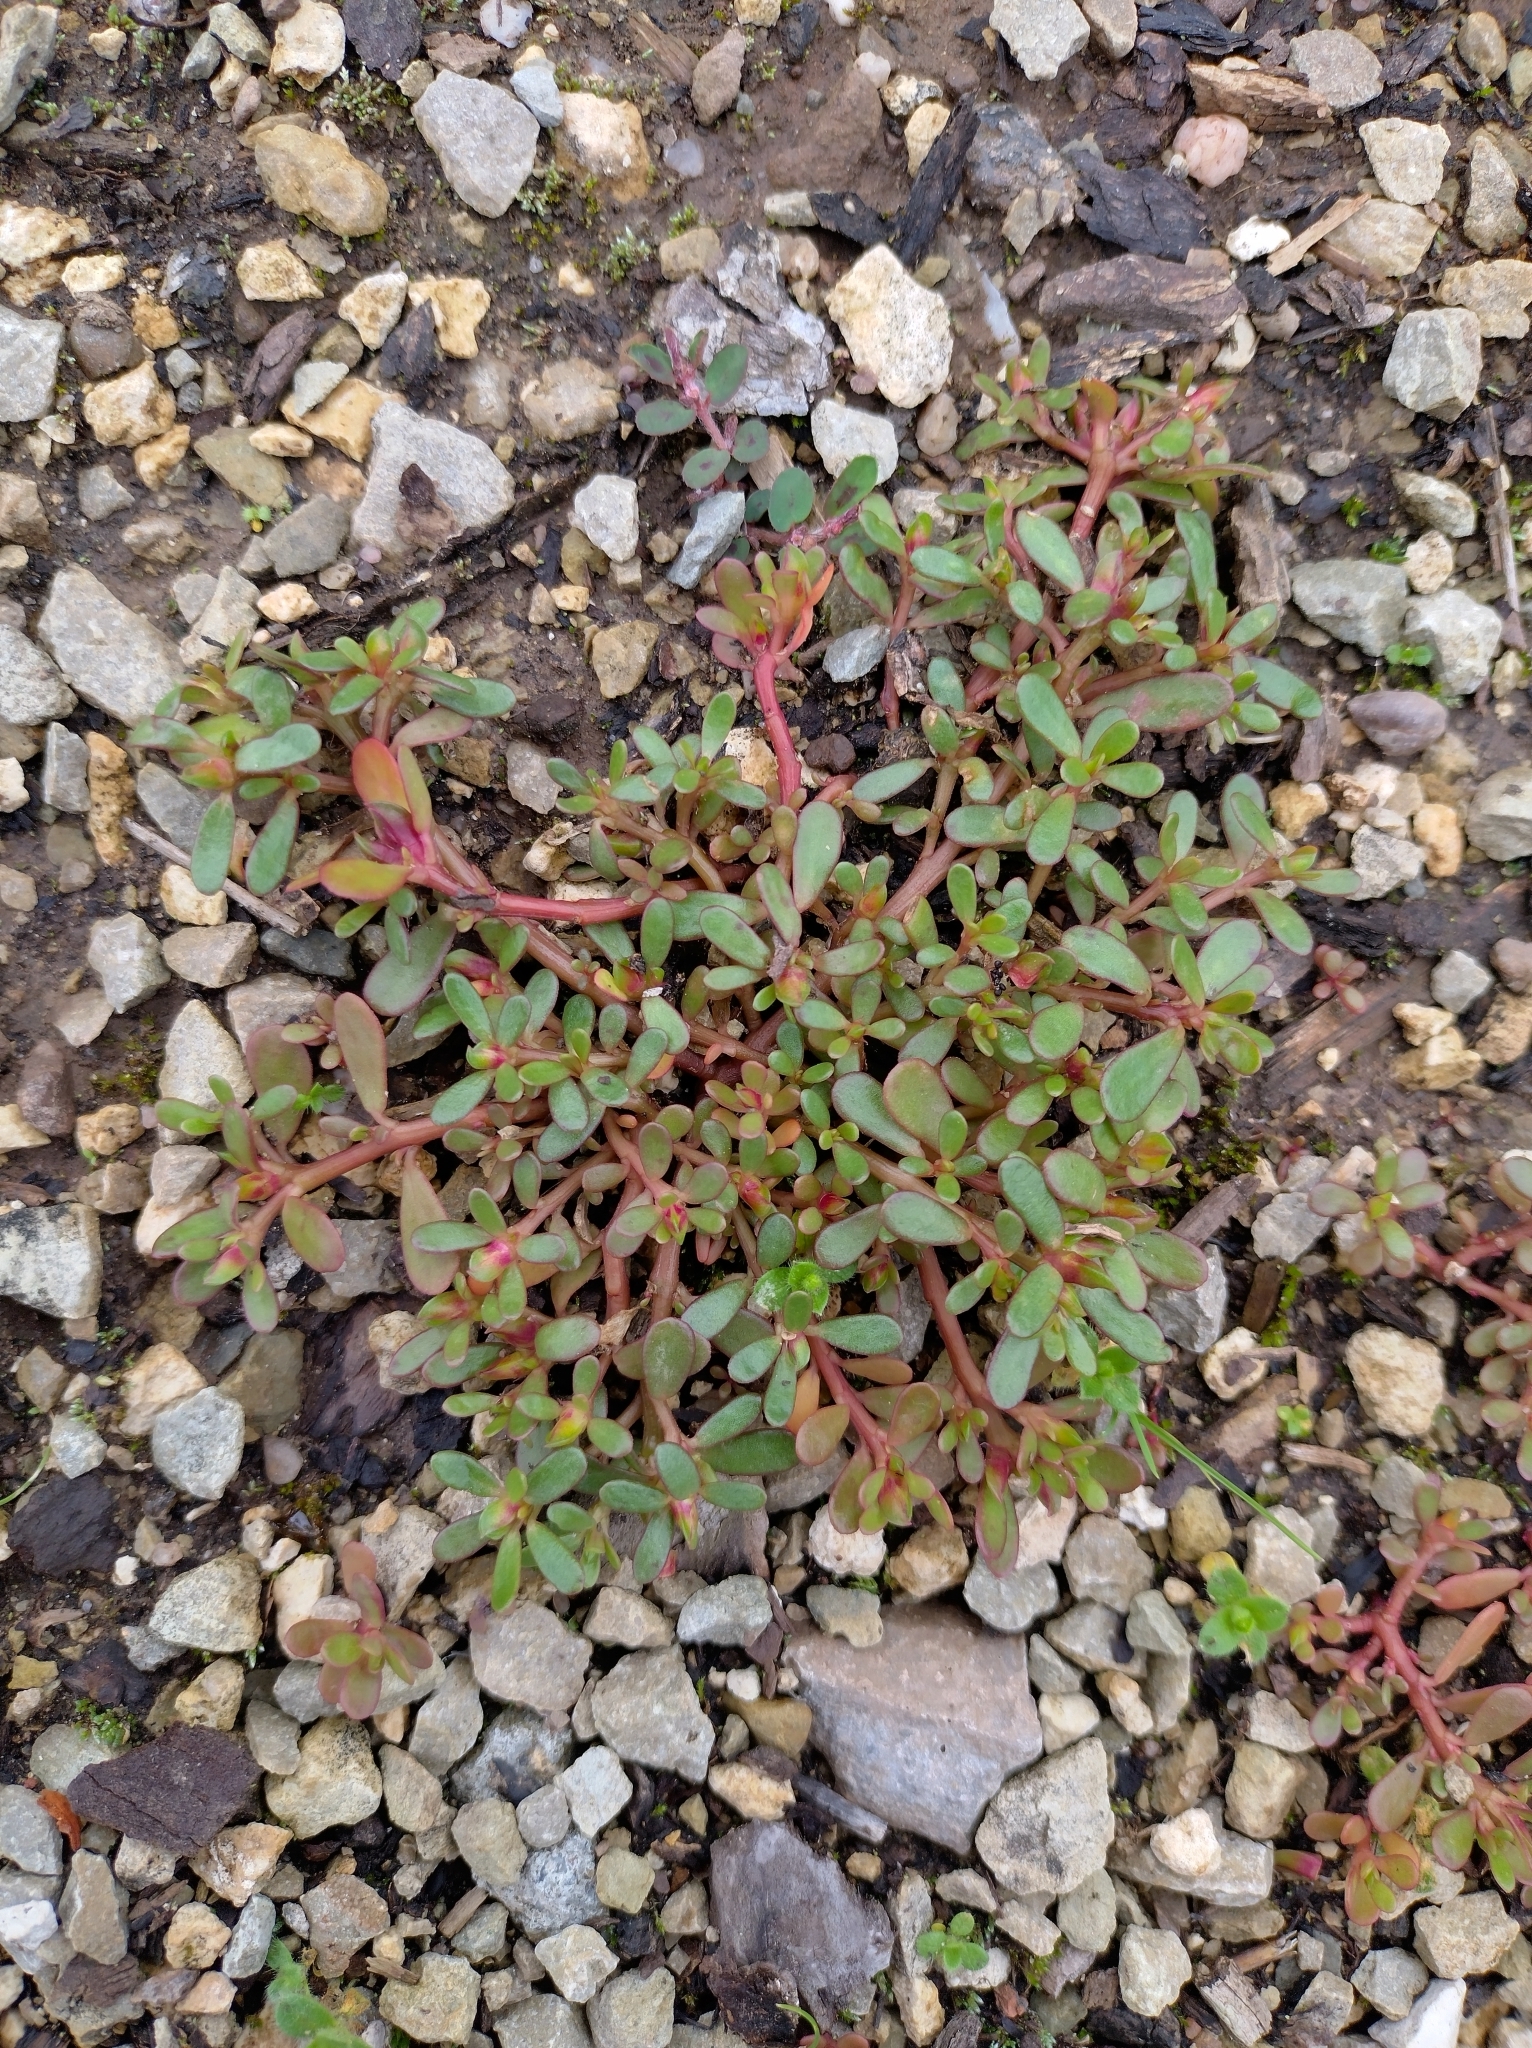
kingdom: Plantae
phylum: Tracheophyta
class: Magnoliopsida
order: Caryophyllales
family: Portulacaceae
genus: Portulaca
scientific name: Portulaca oleracea
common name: Common purslane
